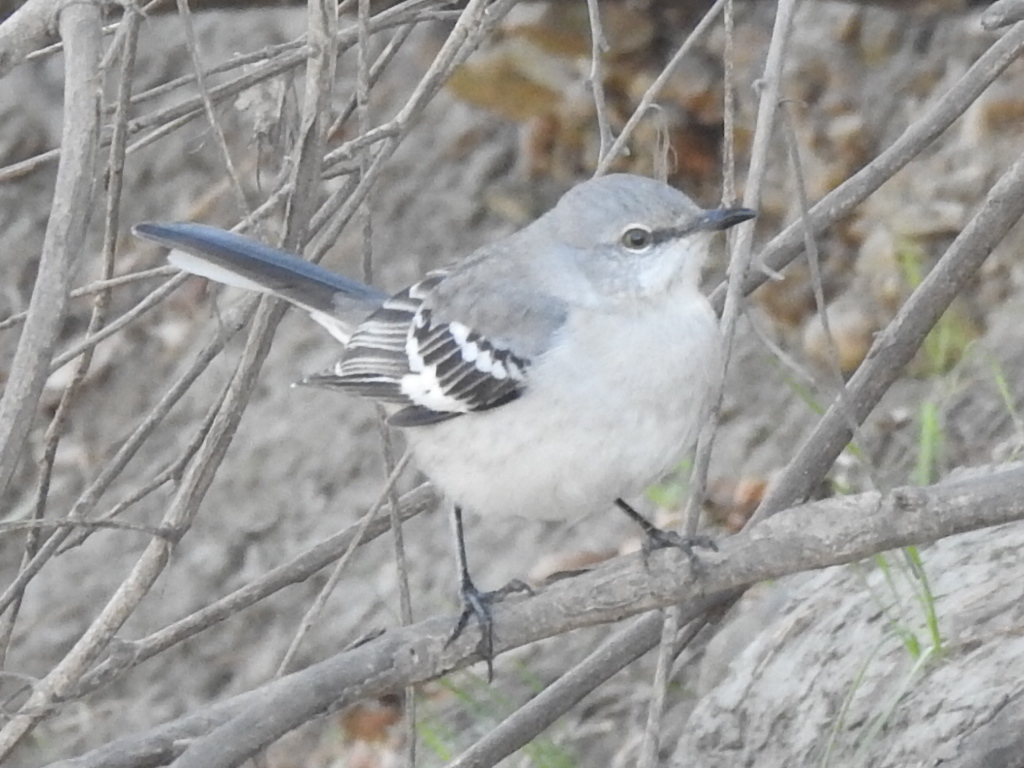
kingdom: Animalia
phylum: Chordata
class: Aves
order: Passeriformes
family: Mimidae
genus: Mimus
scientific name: Mimus polyglottos
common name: Northern mockingbird
